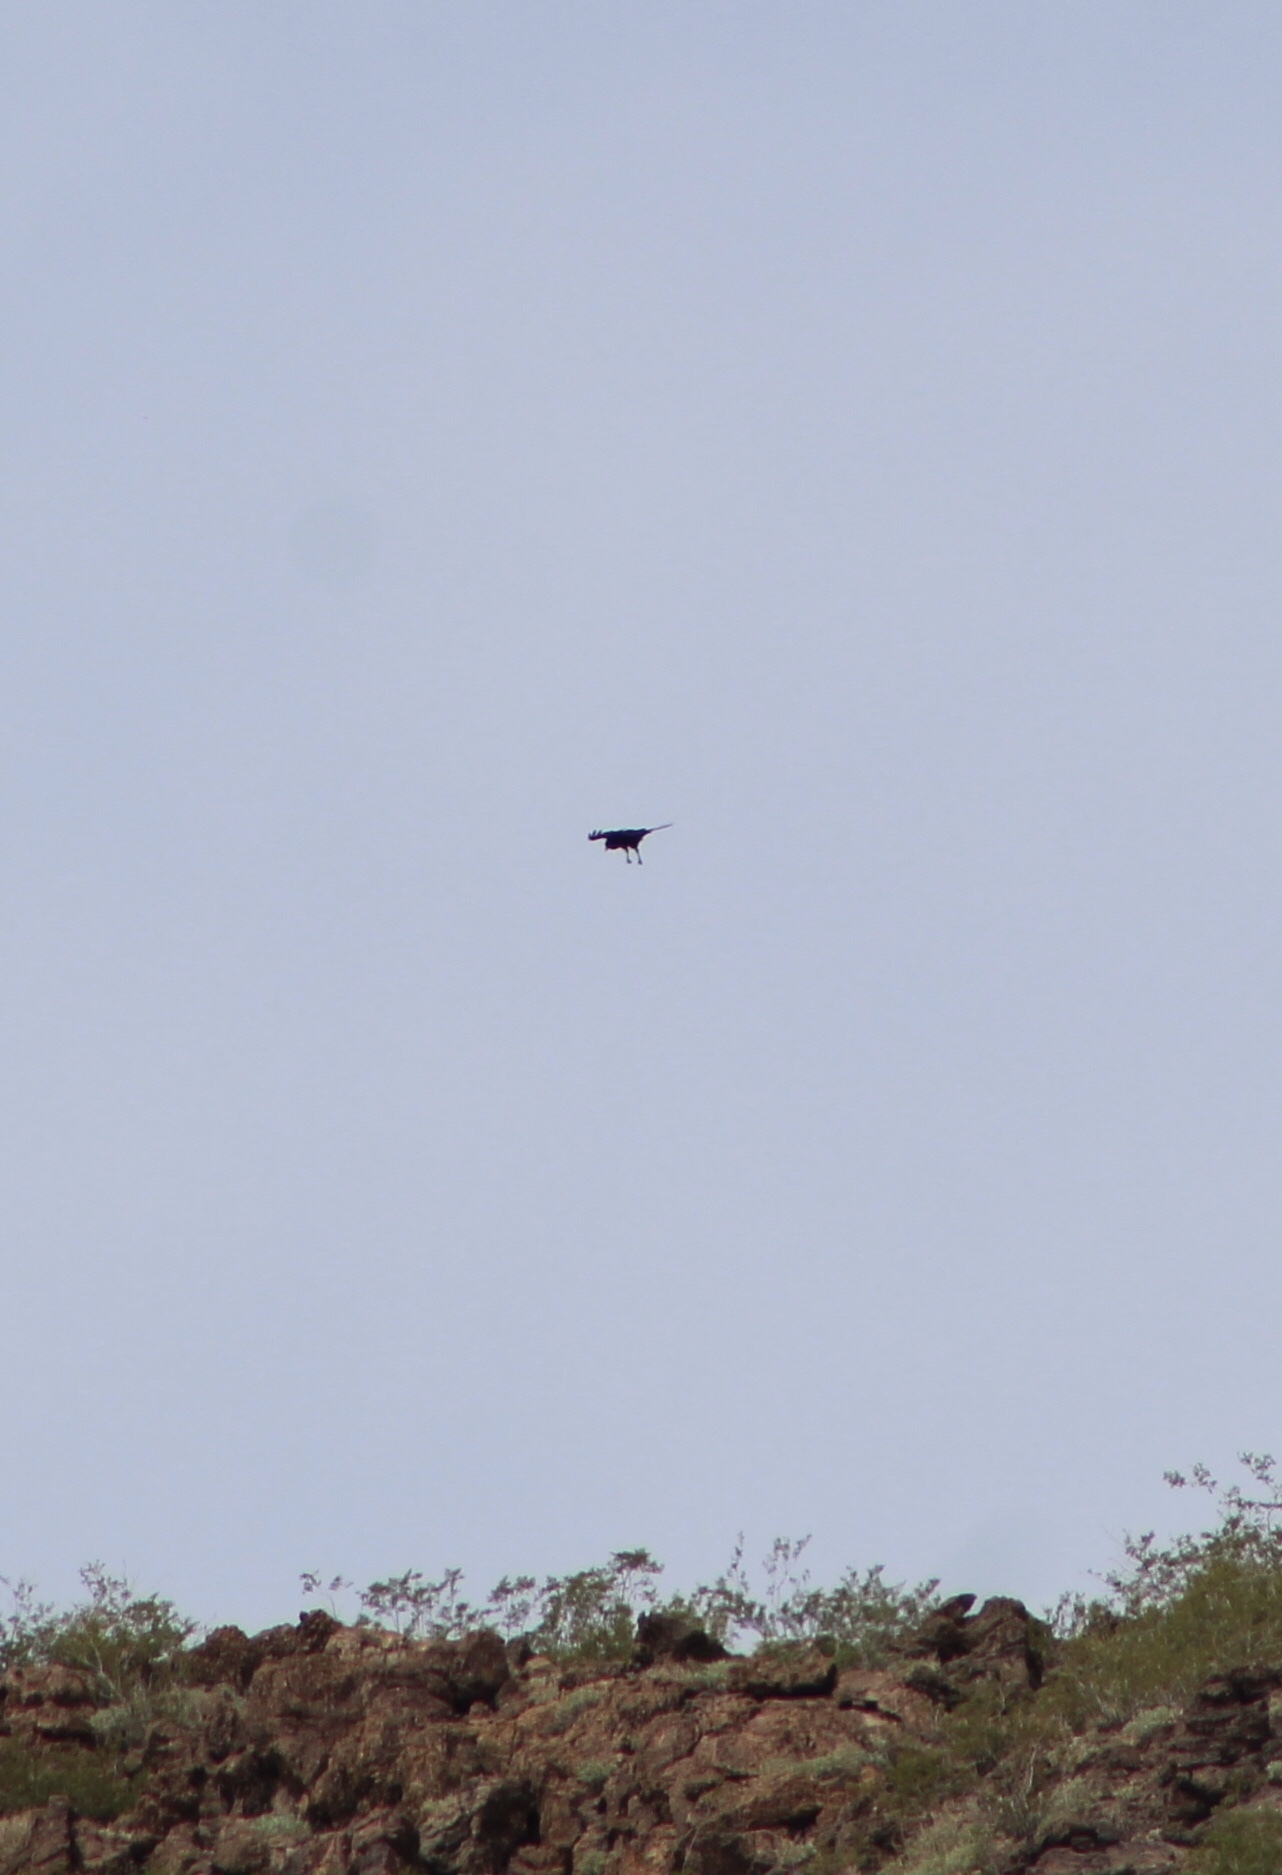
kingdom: Animalia
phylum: Chordata
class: Aves
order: Passeriformes
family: Corvidae
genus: Corvus
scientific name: Corvus corax
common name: Common raven
